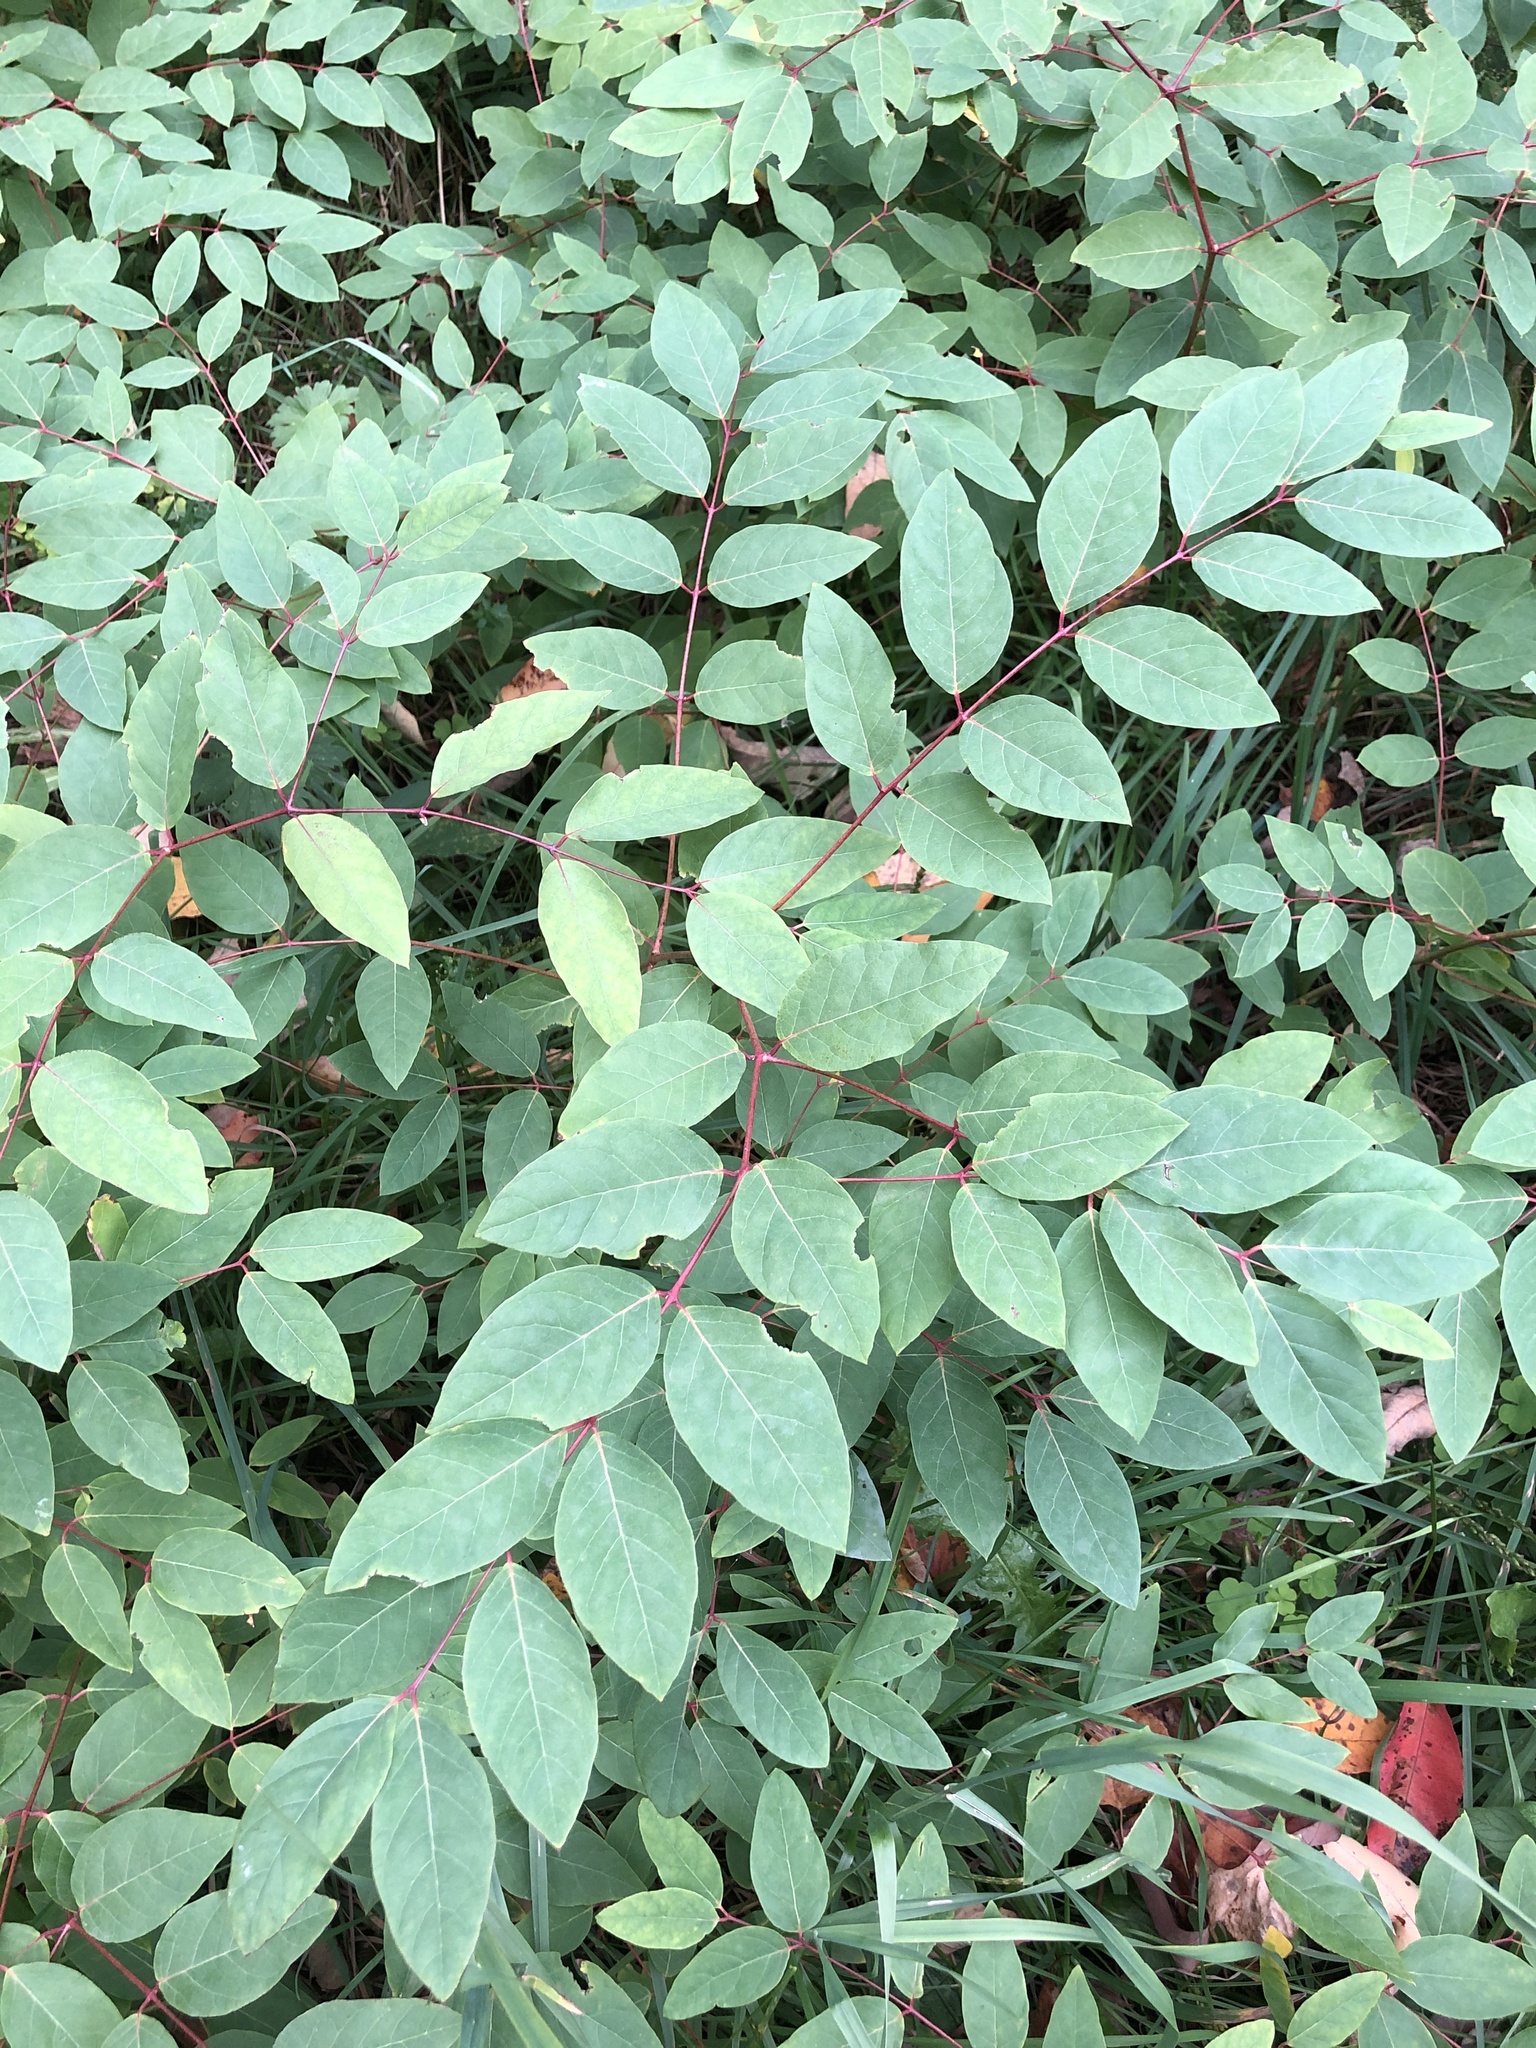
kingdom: Plantae
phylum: Tracheophyta
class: Magnoliopsida
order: Gentianales
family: Apocynaceae
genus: Apocynum
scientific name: Apocynum androsaemifolium
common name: Spreading dogbane
